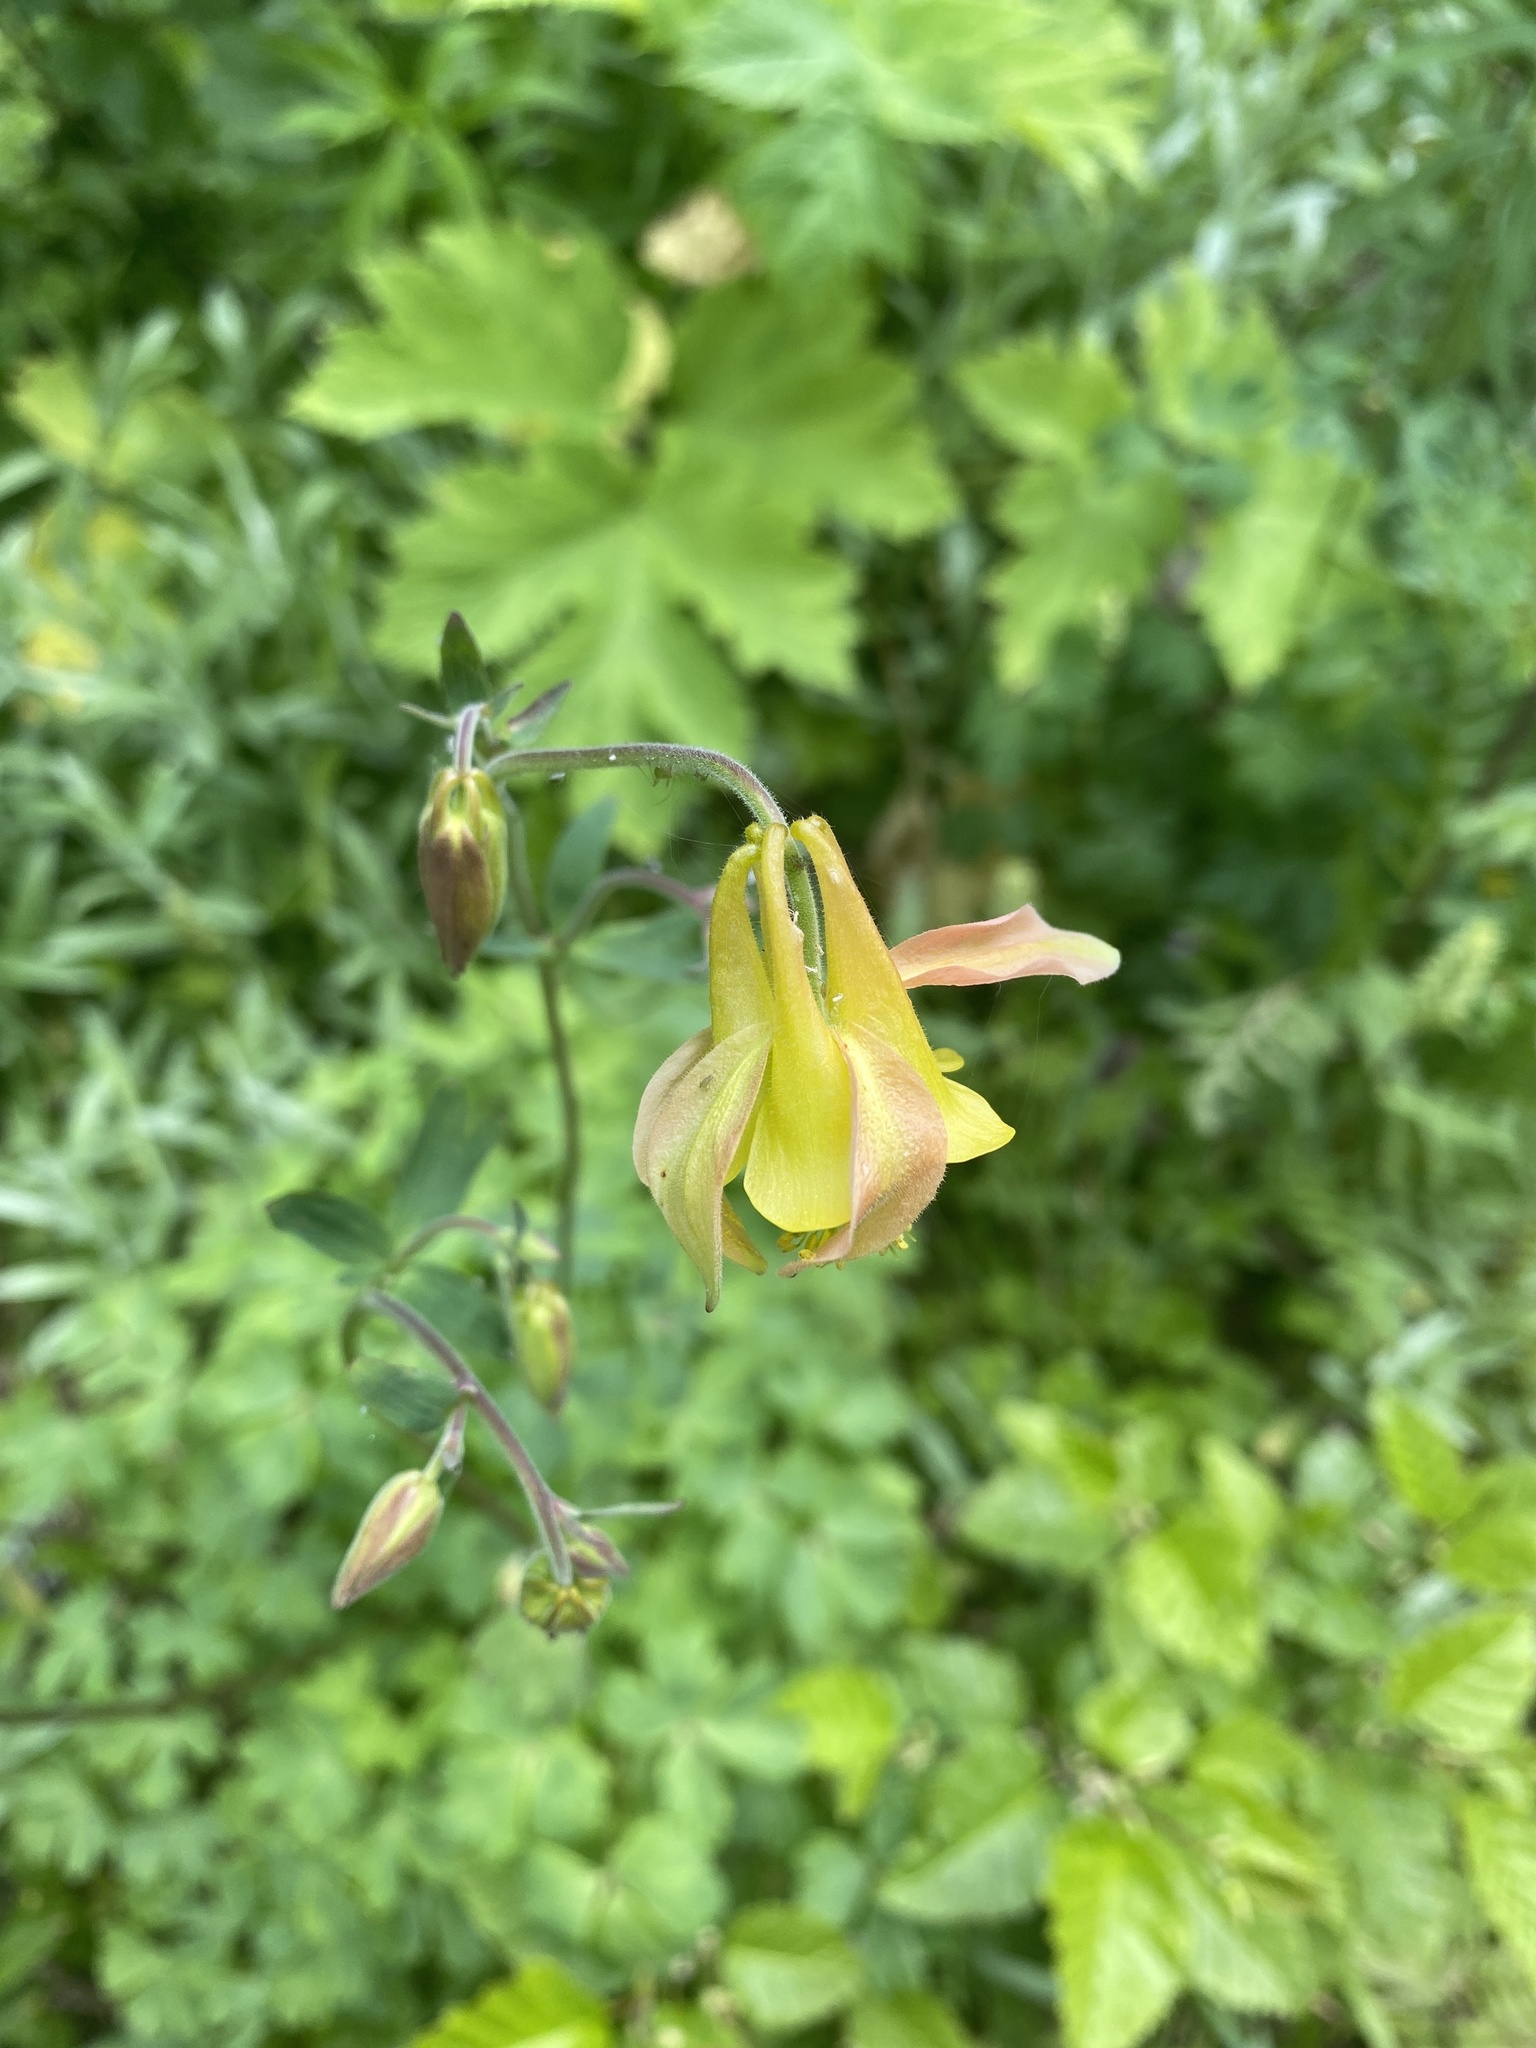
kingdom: Plantae
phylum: Tracheophyta
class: Magnoliopsida
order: Ranunculales
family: Ranunculaceae
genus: Aquilegia
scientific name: Aquilegia flavescens
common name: Yellow columbine
